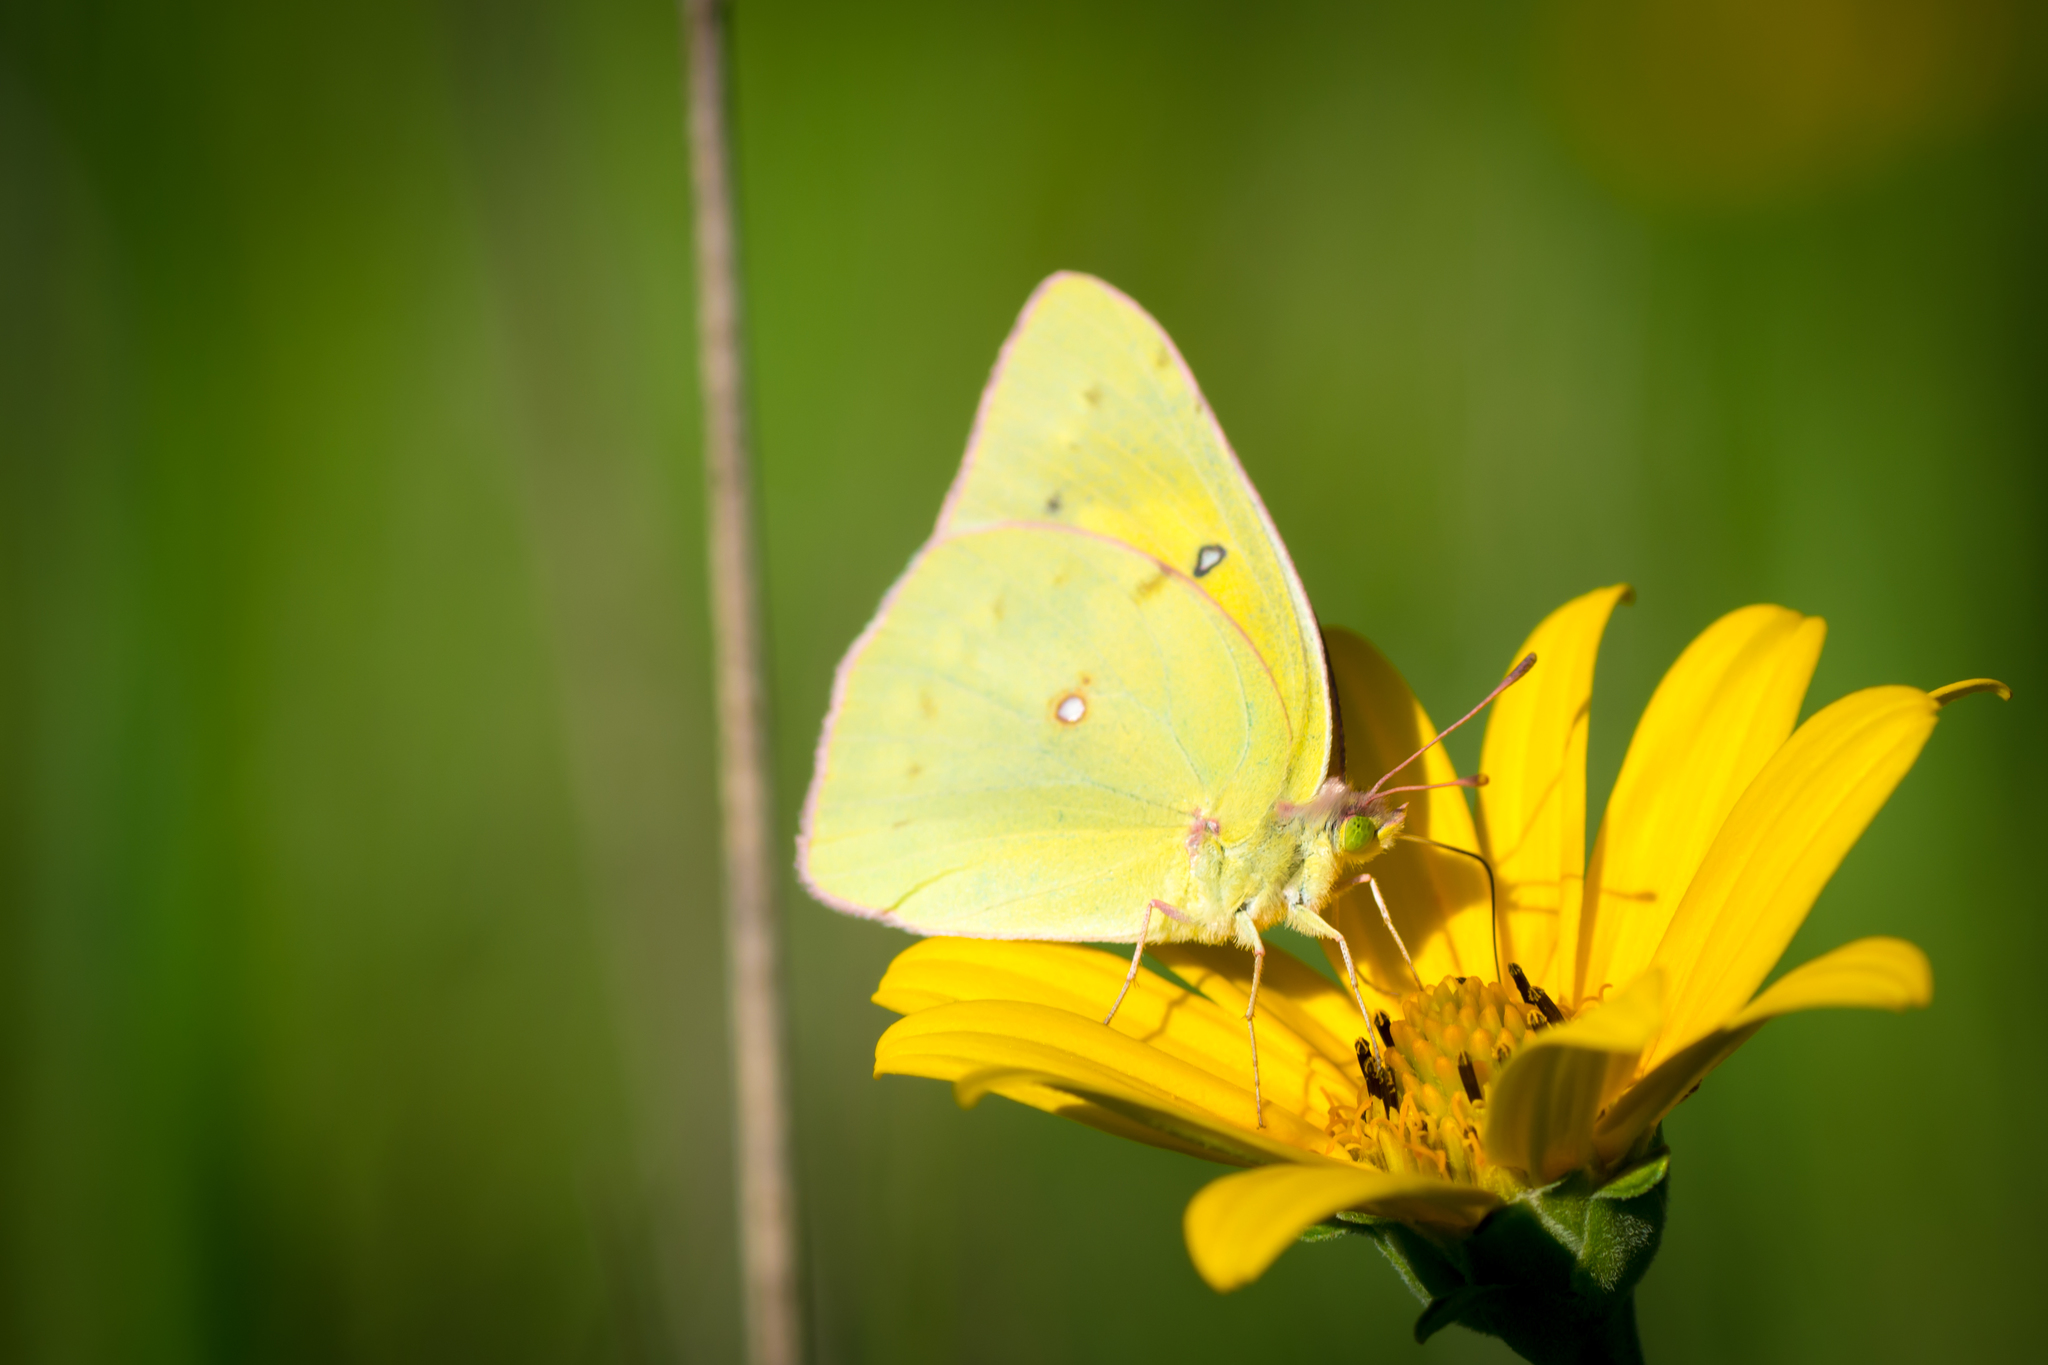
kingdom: Animalia
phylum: Arthropoda
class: Insecta
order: Lepidoptera
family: Pieridae
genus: Colias
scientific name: Colias eurytheme
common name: Alfalfa butterfly
